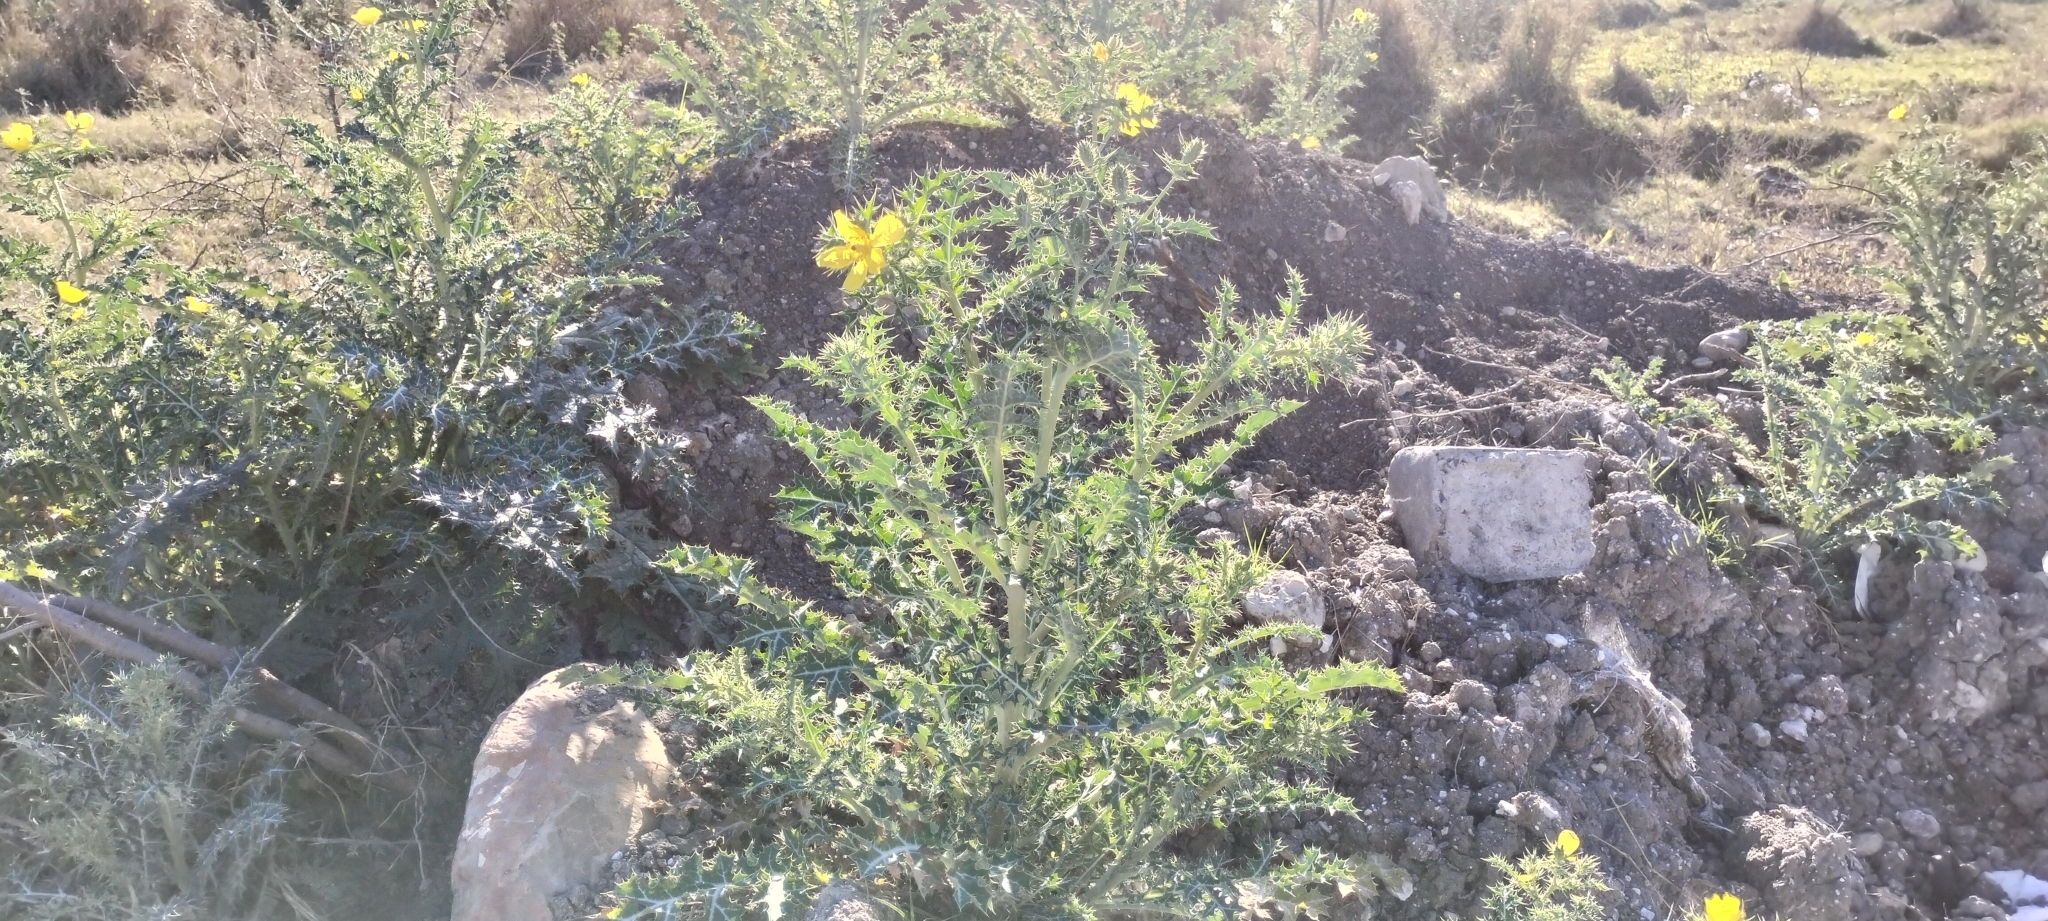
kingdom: Plantae
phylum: Tracheophyta
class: Magnoliopsida
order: Ranunculales
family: Papaveraceae
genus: Argemone
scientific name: Argemone mexicana
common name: Mexican poppy
